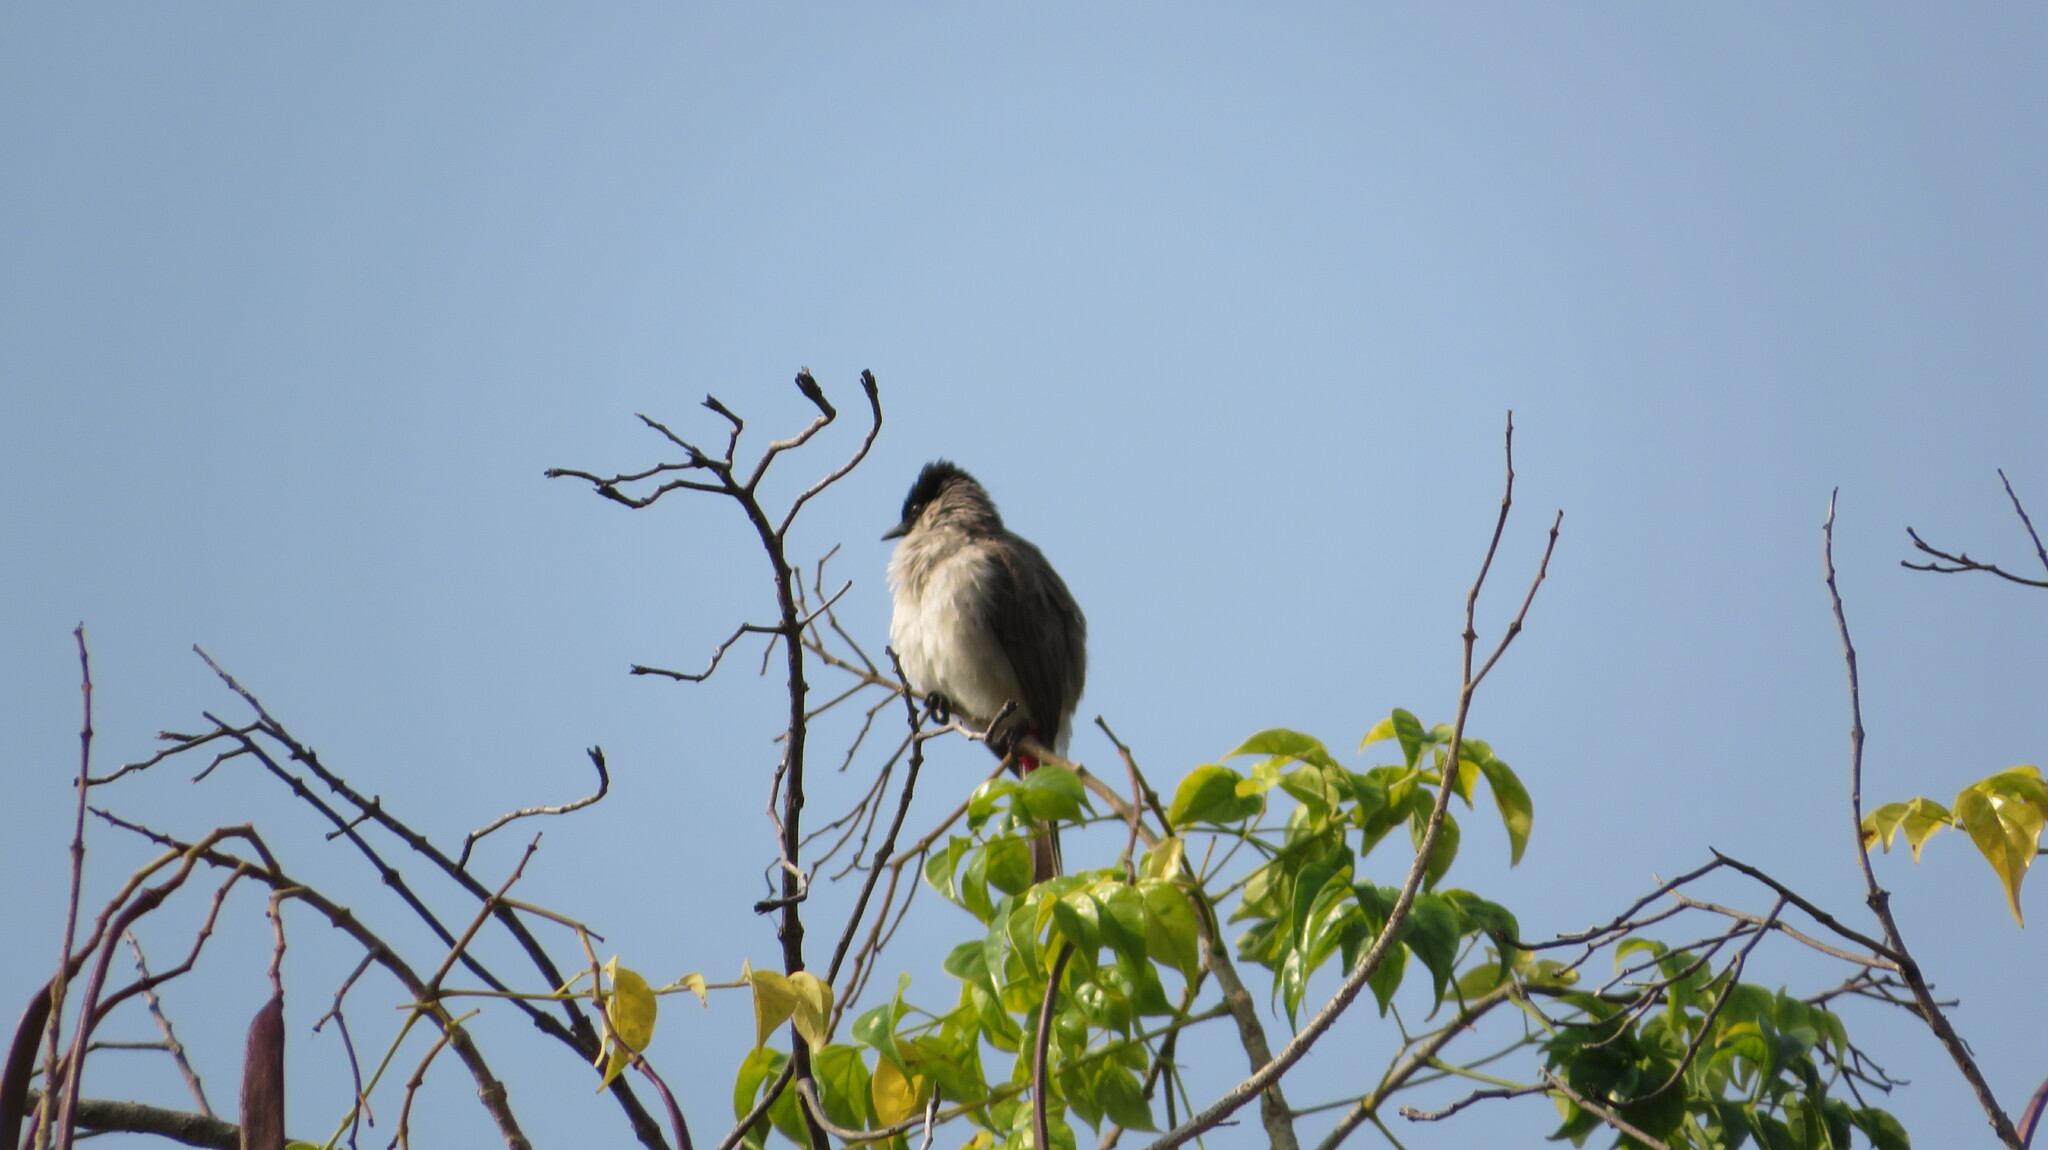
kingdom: Animalia
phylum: Chordata
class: Aves
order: Passeriformes
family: Pycnonotidae
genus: Pycnonotus
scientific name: Pycnonotus aurigaster
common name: Sooty-headed bulbul
